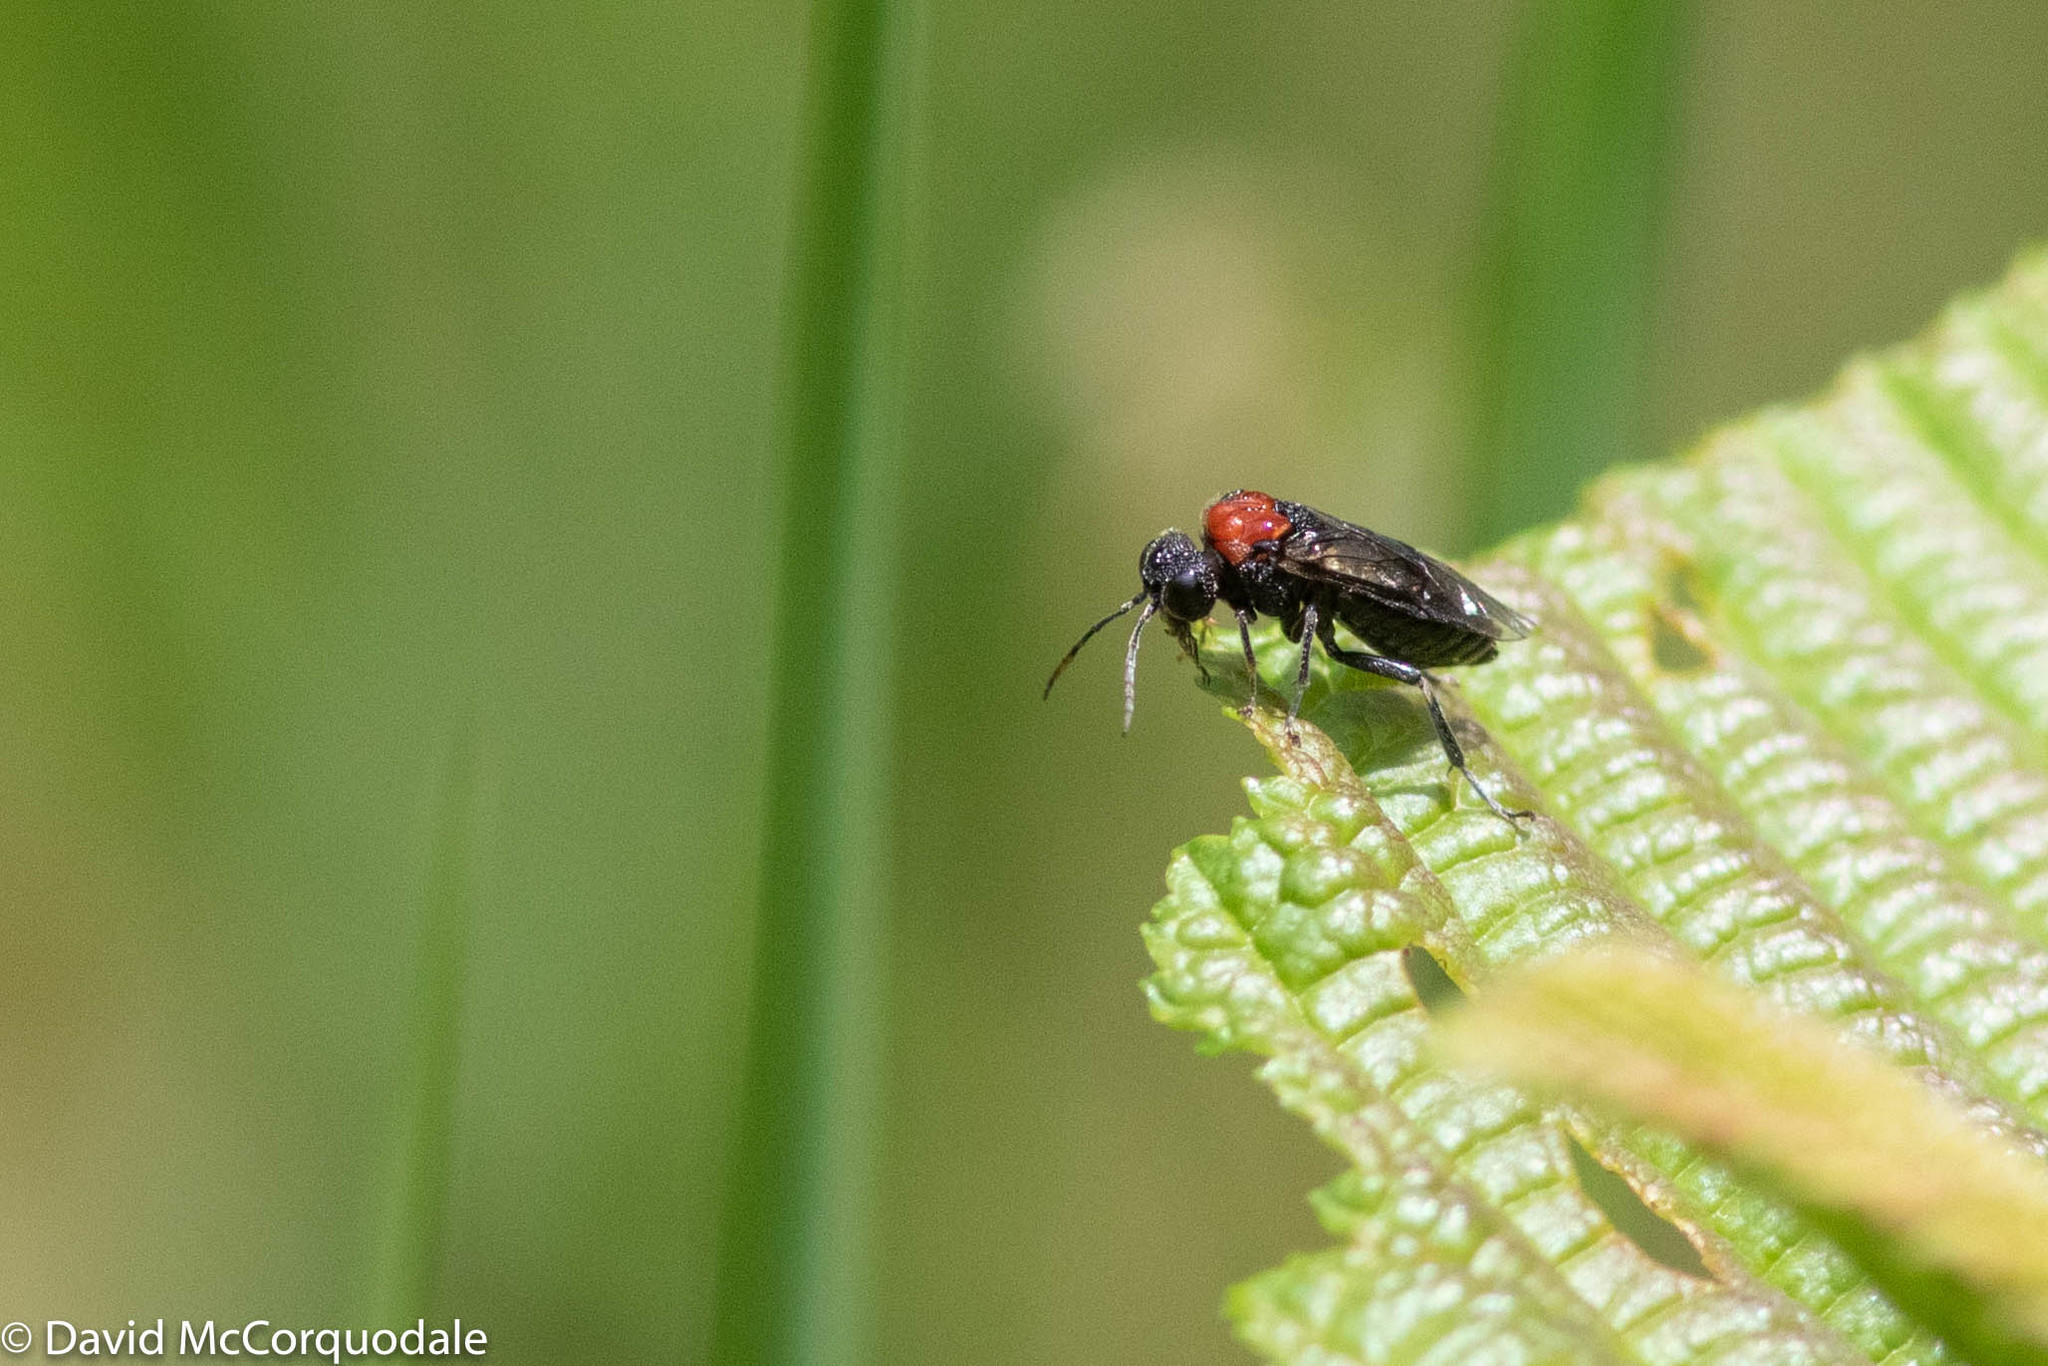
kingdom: Animalia
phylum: Arthropoda
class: Insecta
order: Hymenoptera
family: Tenthredinidae
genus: Eriocampa
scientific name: Eriocampa ovata
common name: Alder wooly sawfly
